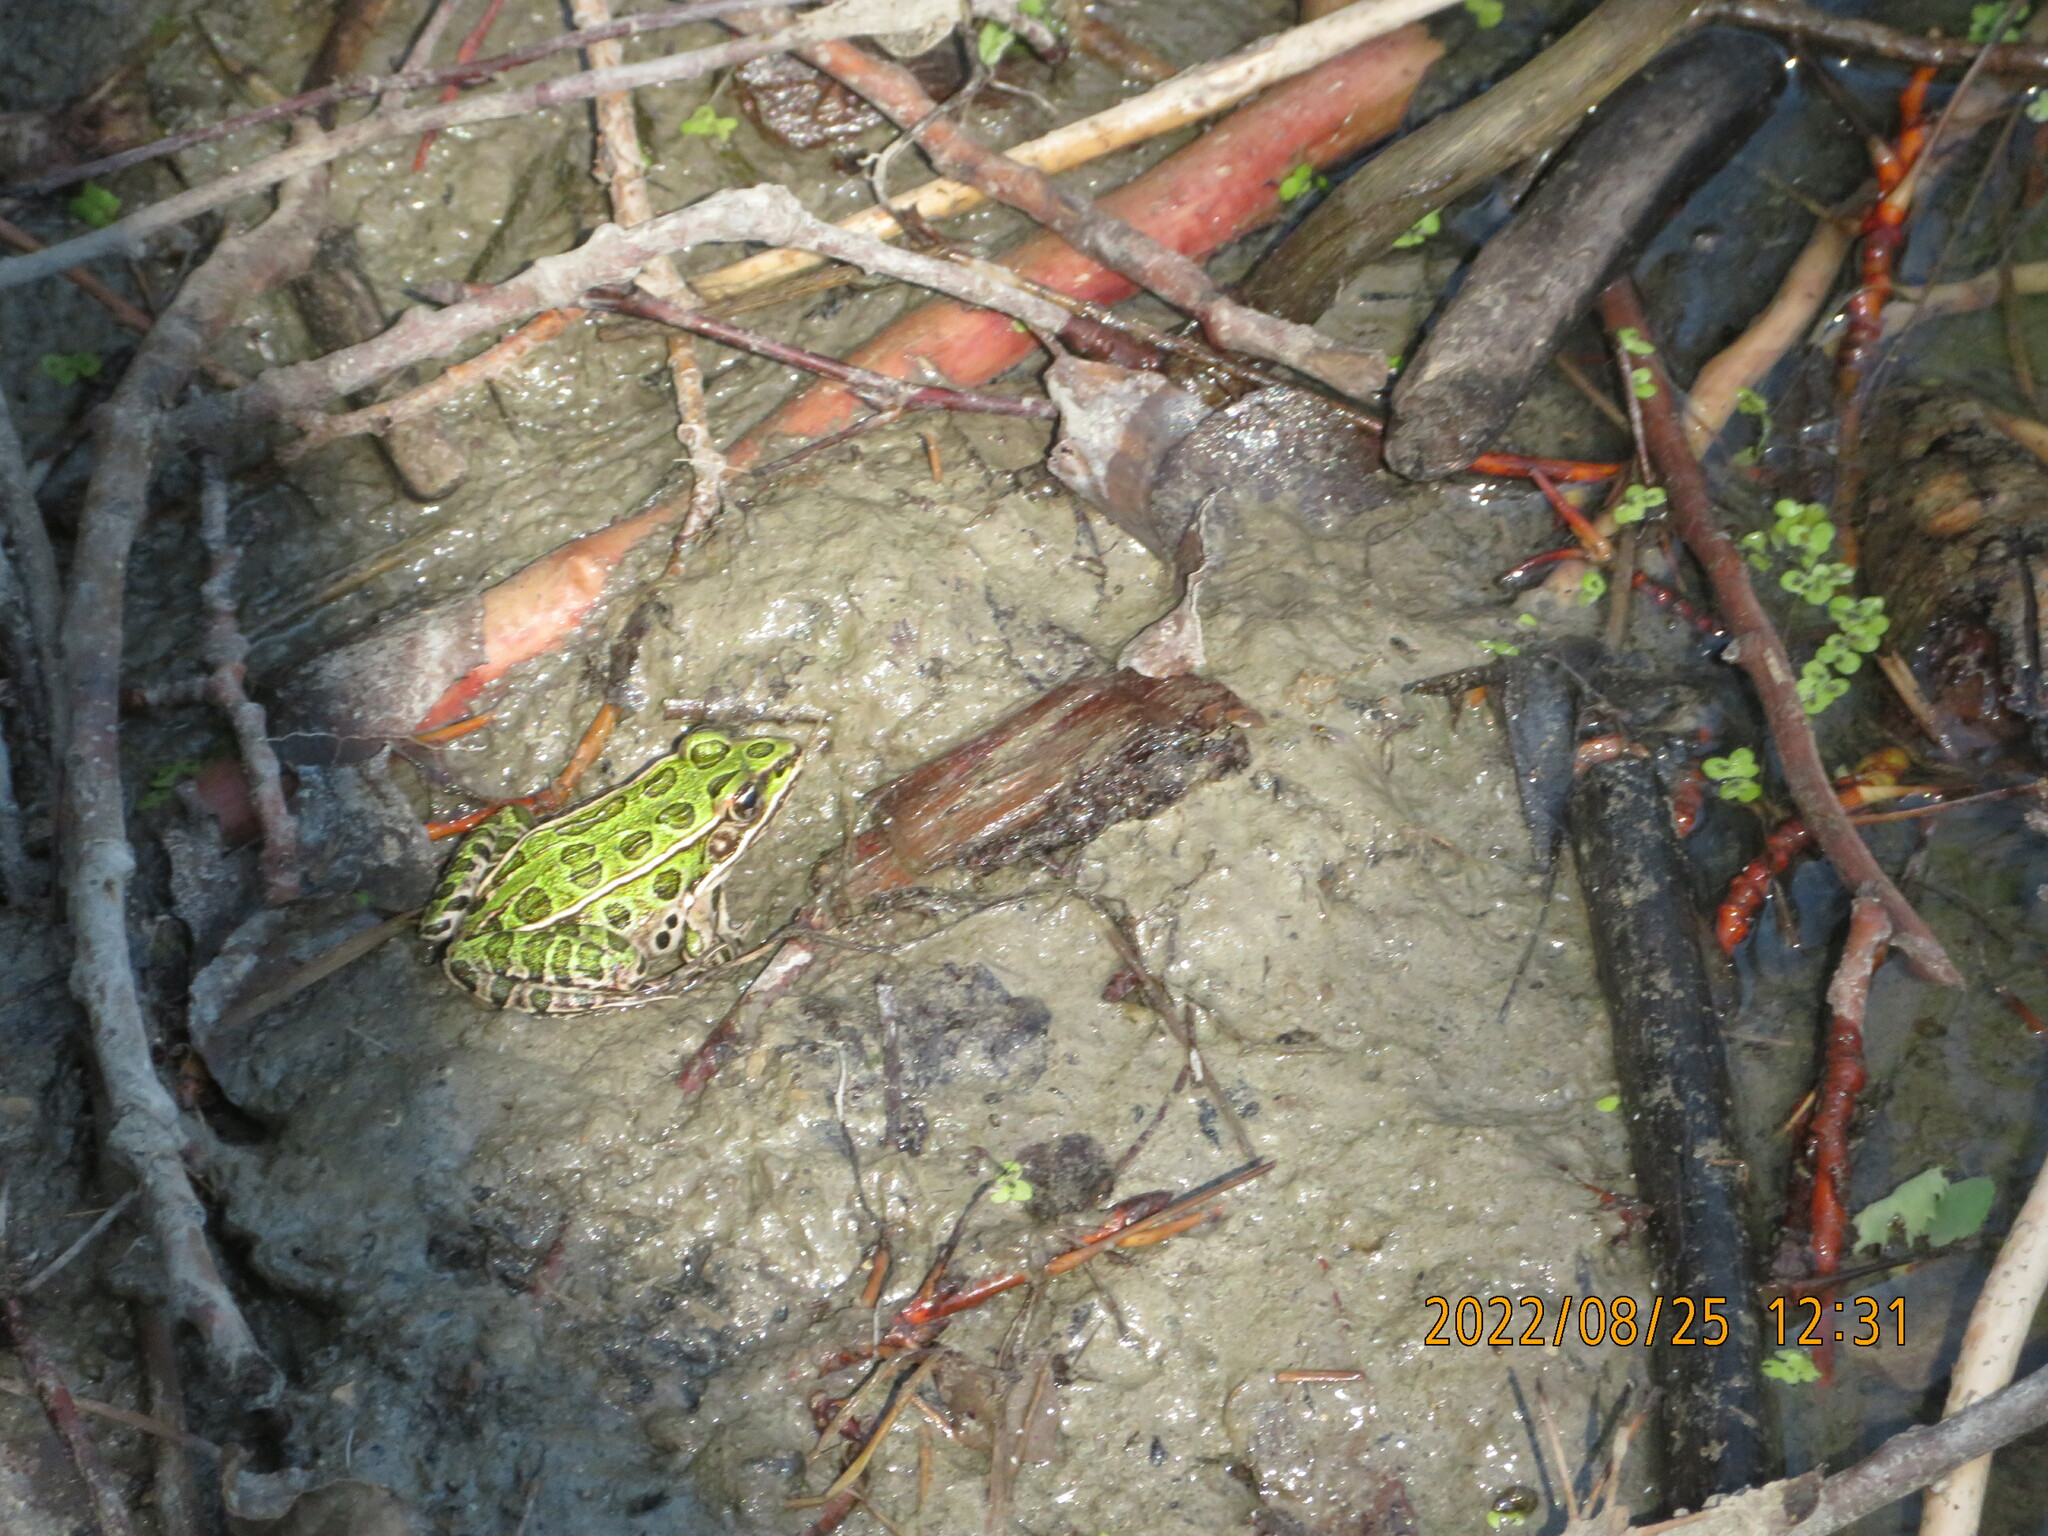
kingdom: Animalia
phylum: Chordata
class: Amphibia
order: Anura
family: Ranidae
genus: Lithobates
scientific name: Lithobates pipiens
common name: Northern leopard frog
